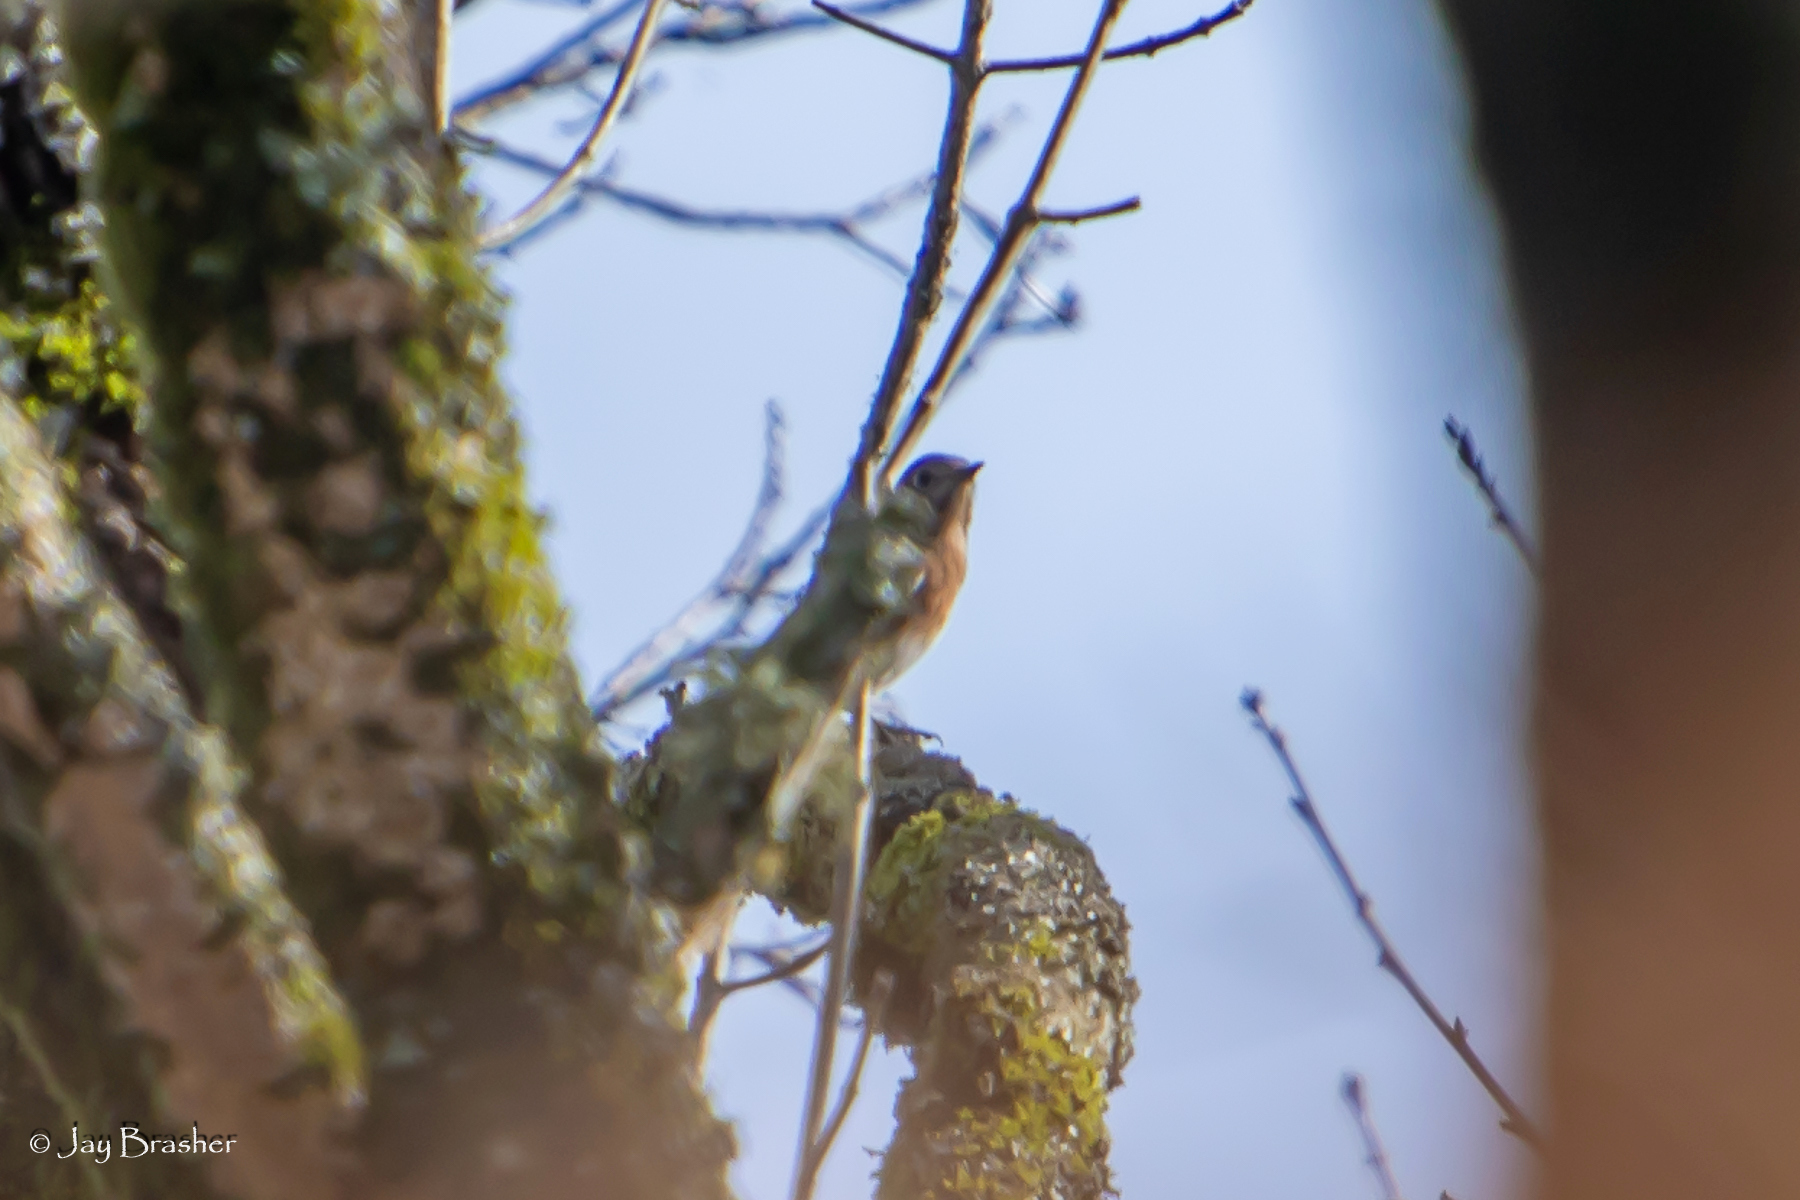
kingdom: Animalia
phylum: Chordata
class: Aves
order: Passeriformes
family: Turdidae
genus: Sialia
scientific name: Sialia sialis
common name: Eastern bluebird
